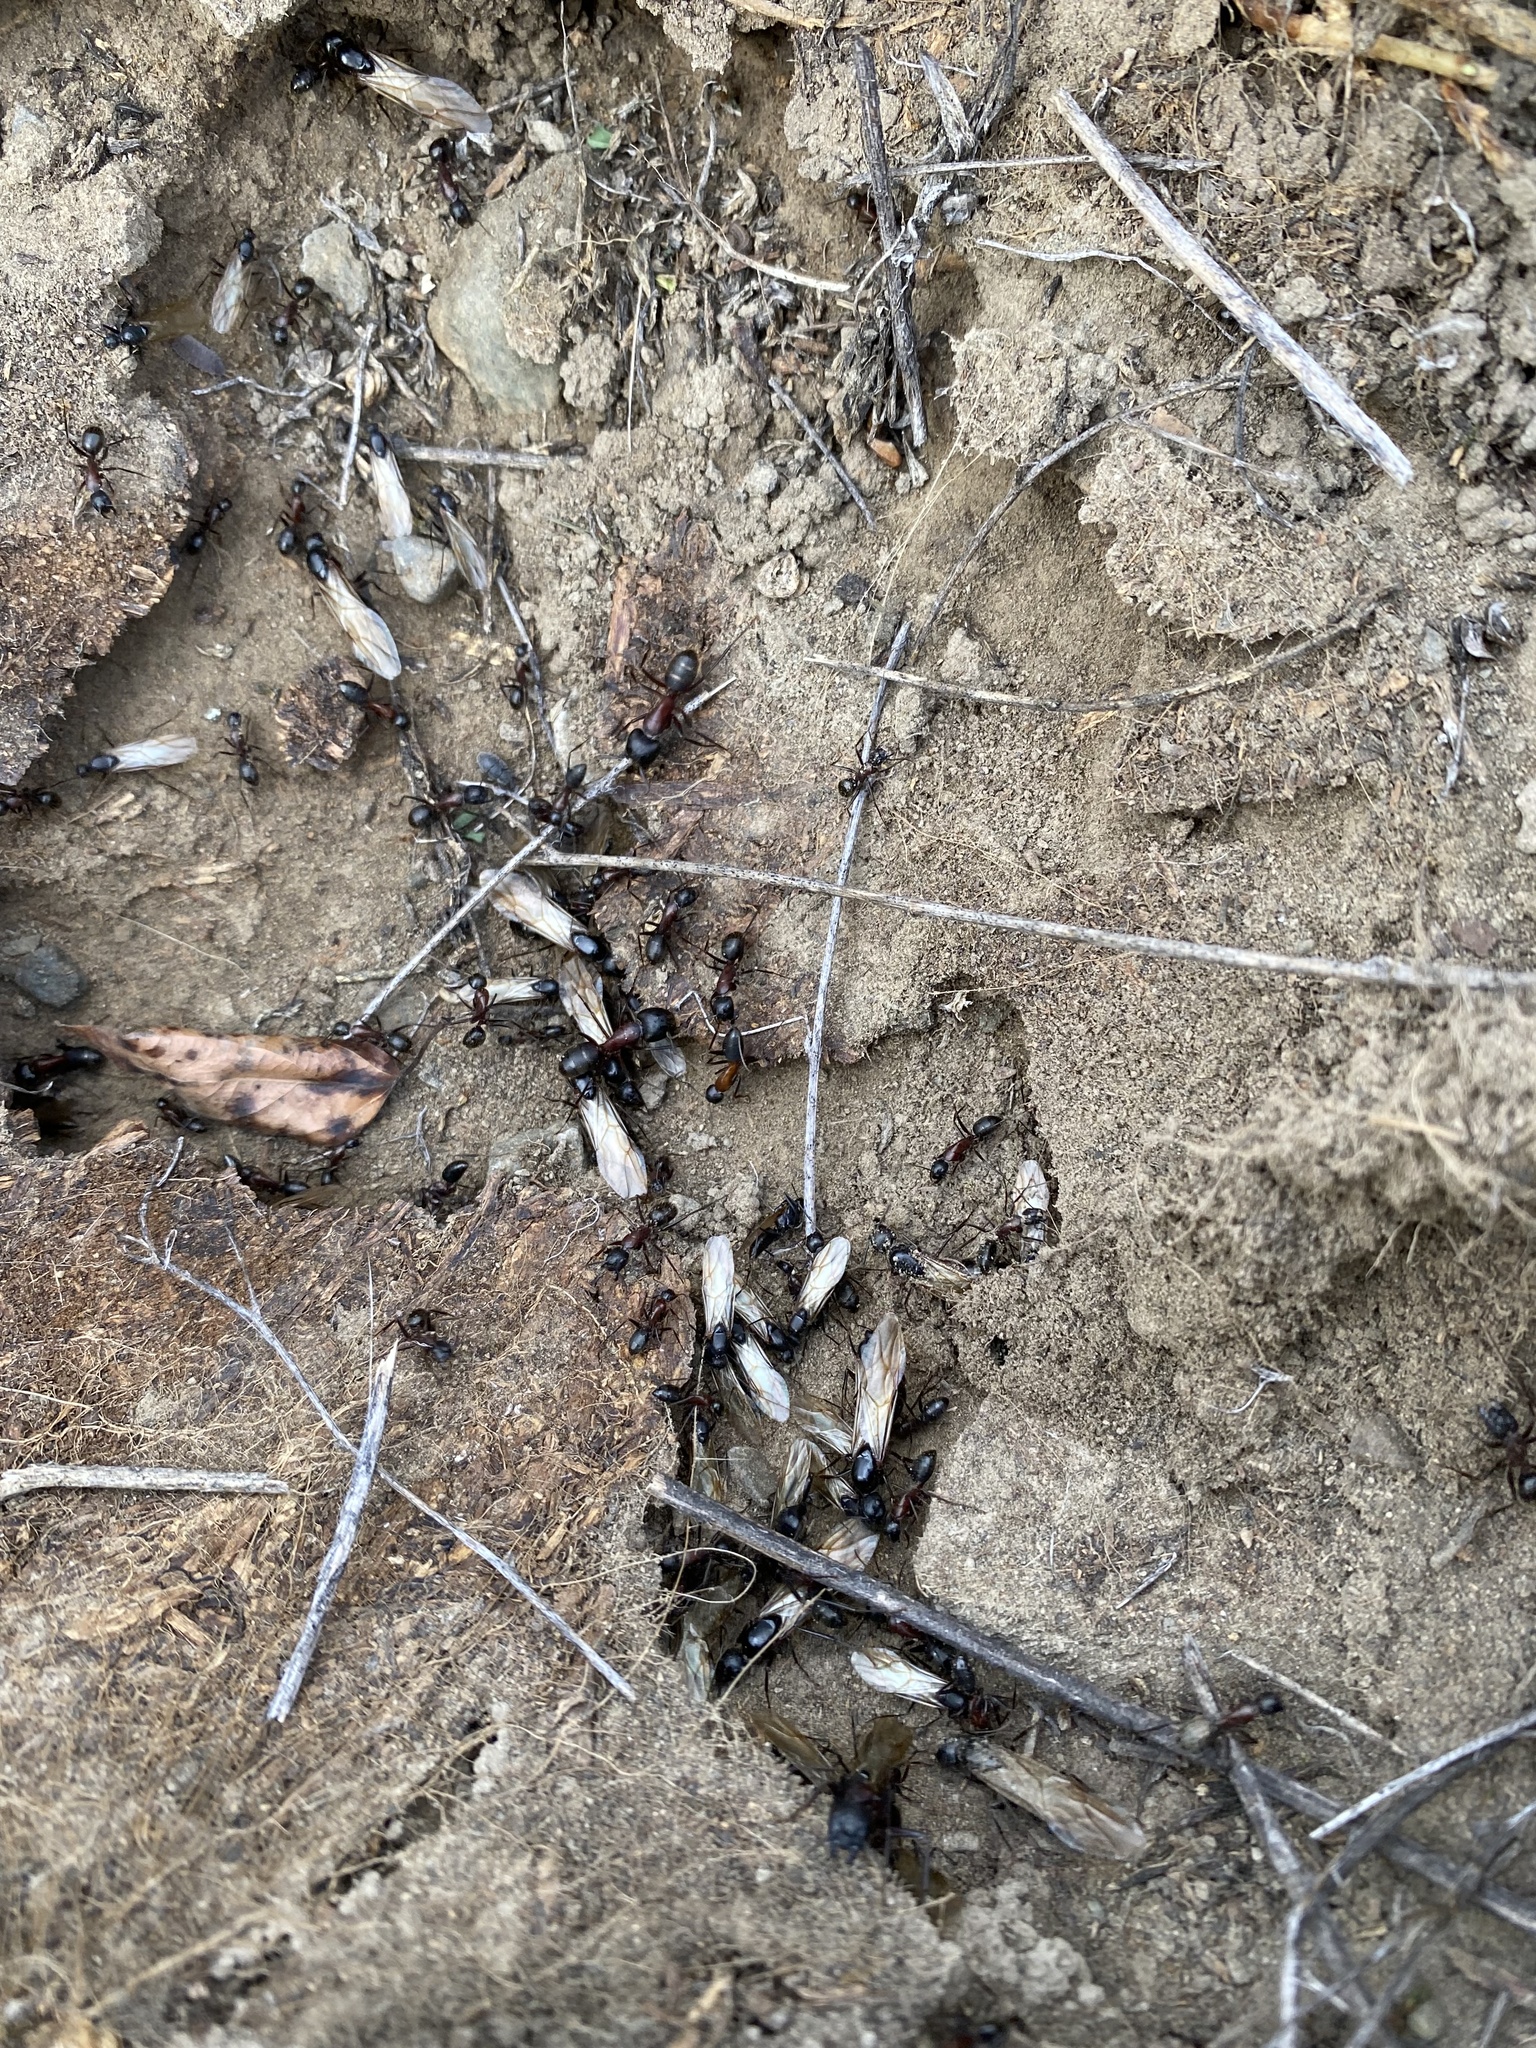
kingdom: Animalia
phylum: Arthropoda
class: Insecta
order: Hymenoptera
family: Formicidae
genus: Camponotus
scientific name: Camponotus vicinus
